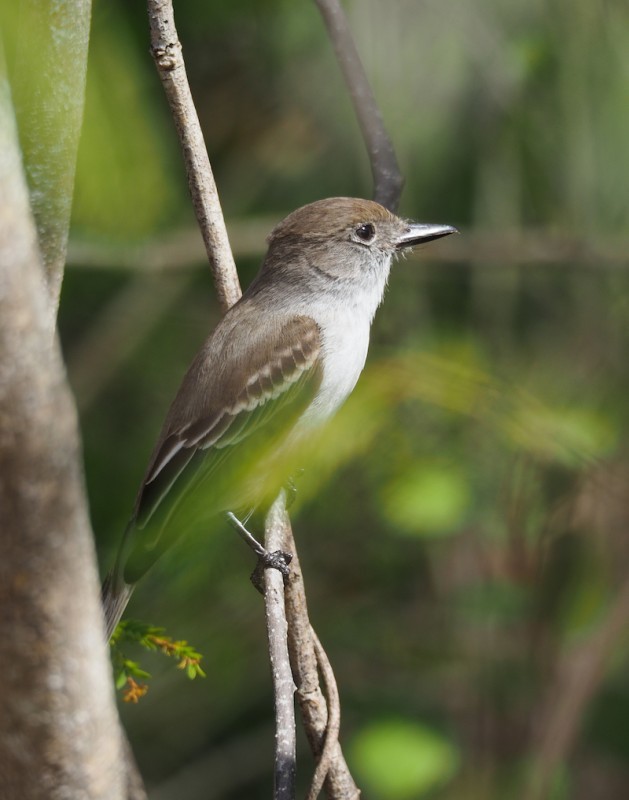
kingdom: Animalia
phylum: Chordata
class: Aves
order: Passeriformes
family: Tyrannidae
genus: Myiarchus
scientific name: Myiarchus sagrae
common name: La sagra's flycatcher
